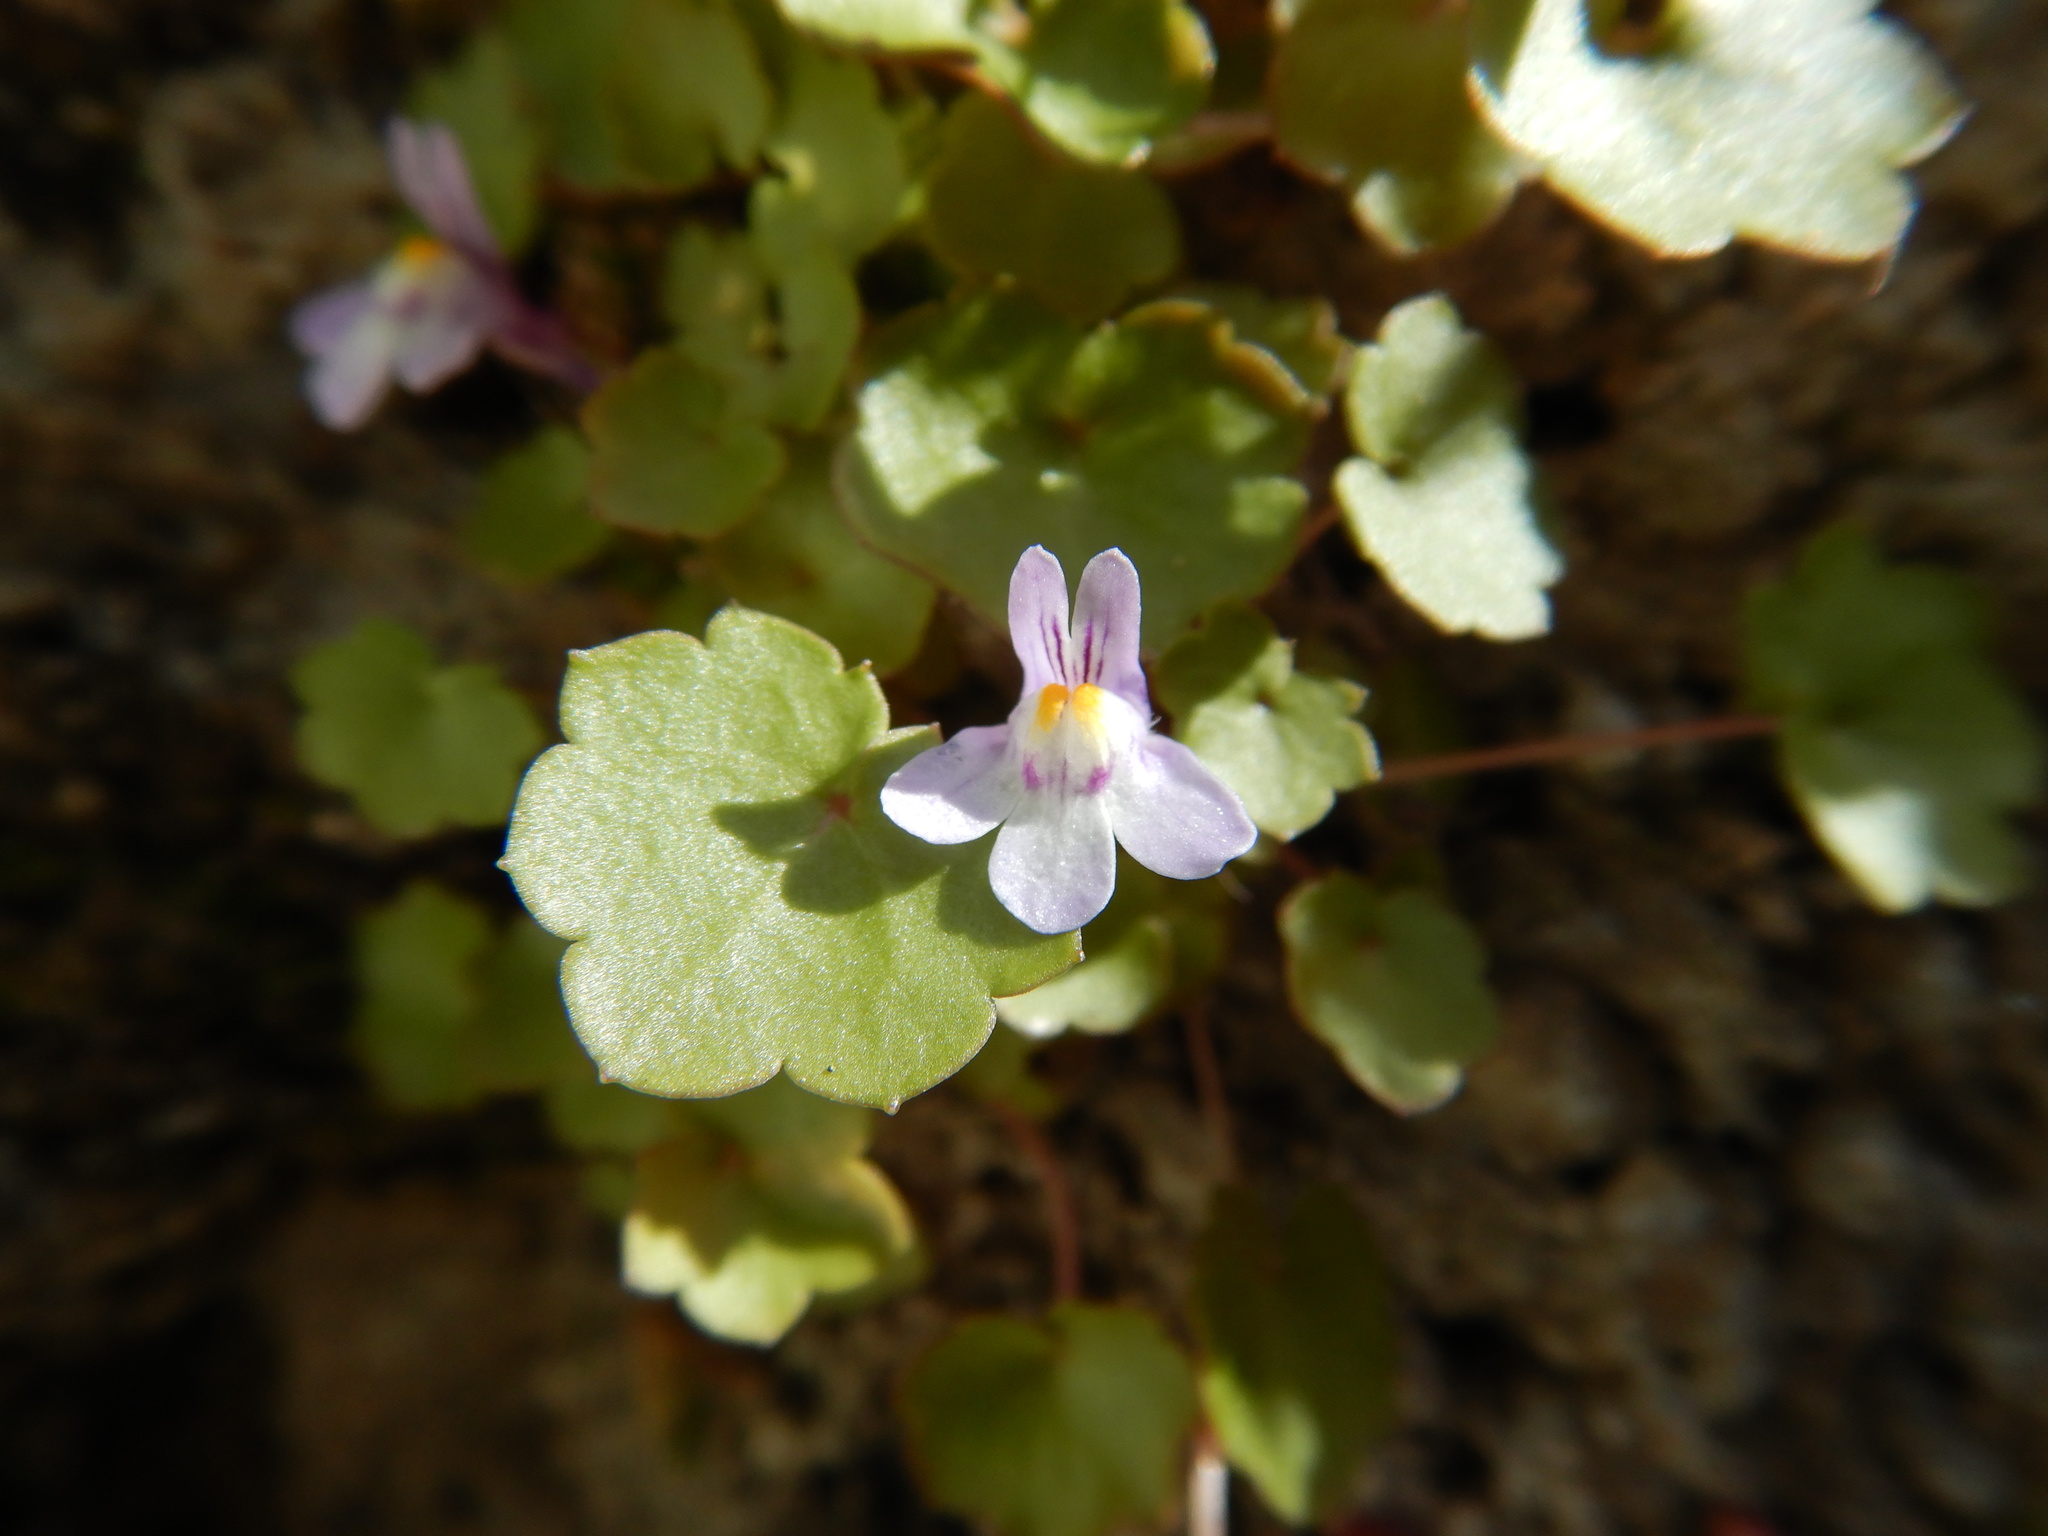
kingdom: Plantae
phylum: Tracheophyta
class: Magnoliopsida
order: Lamiales
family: Plantaginaceae
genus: Cymbalaria
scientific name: Cymbalaria muralis
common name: Ivy-leaved toadflax
